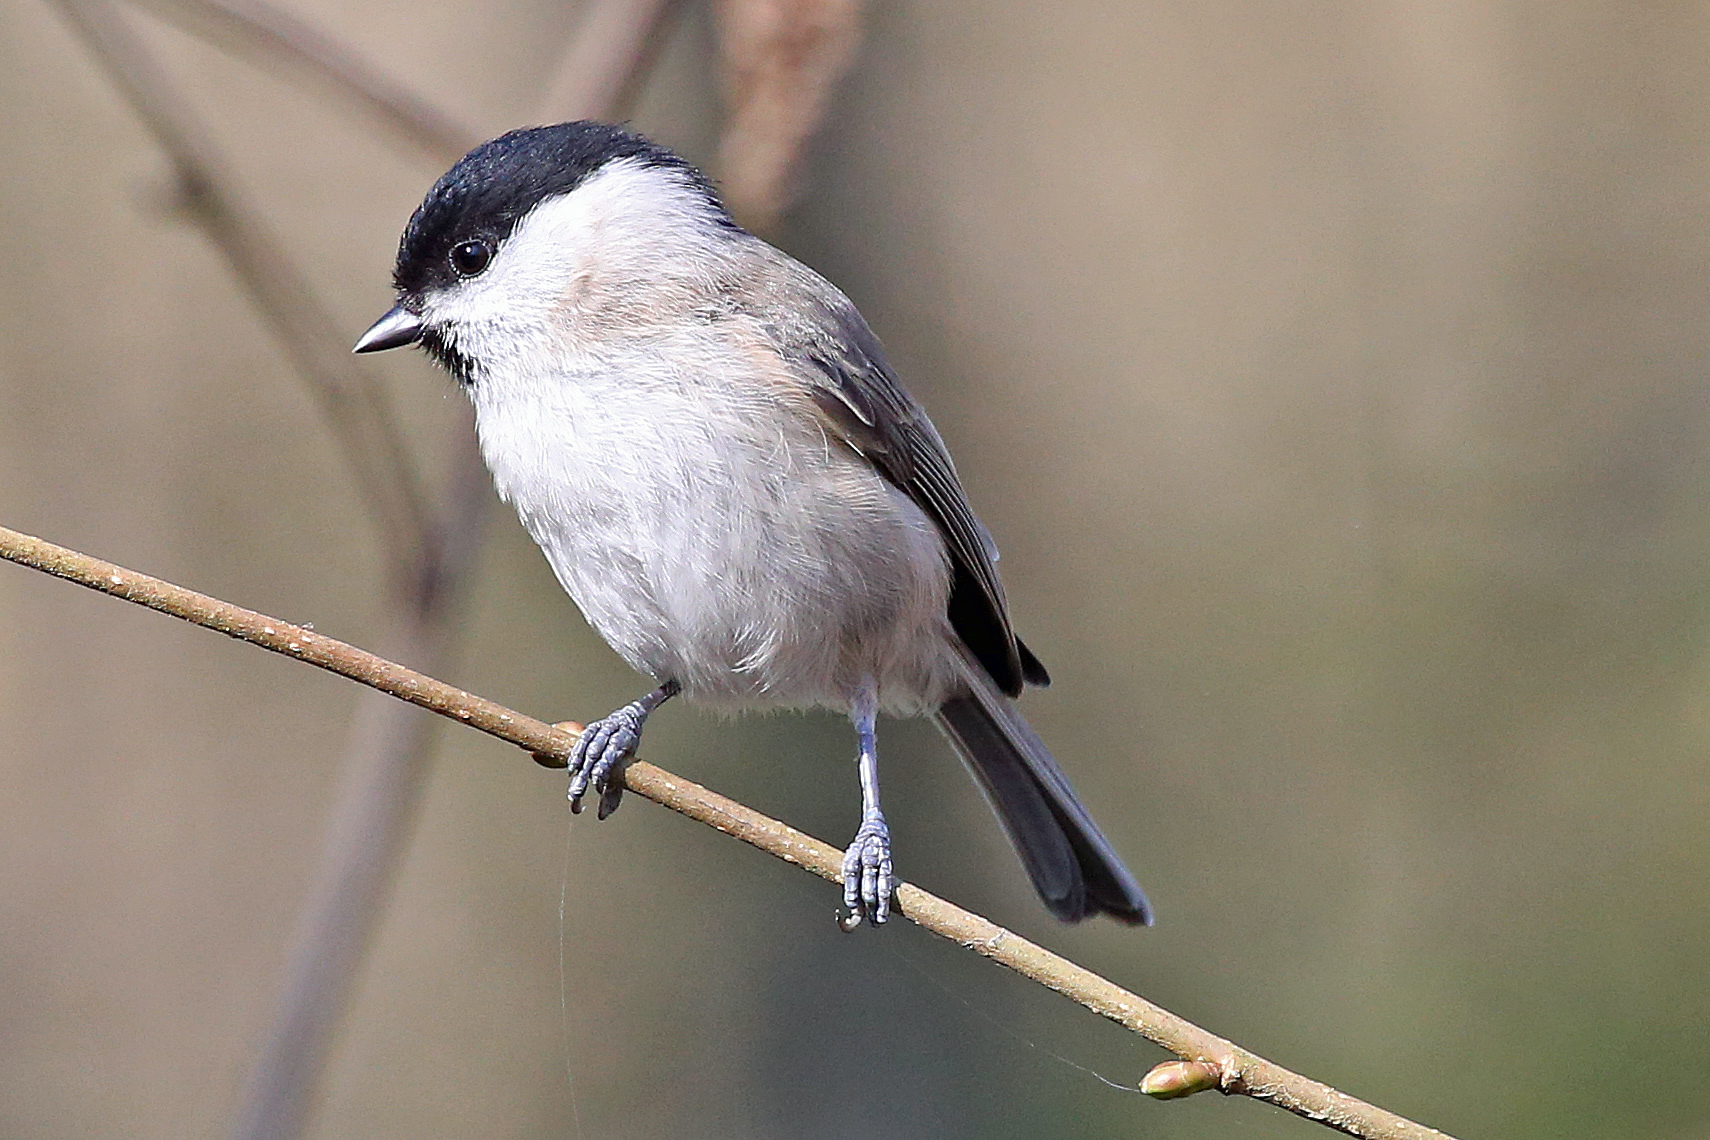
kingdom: Animalia
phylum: Chordata
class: Aves
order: Passeriformes
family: Paridae
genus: Poecile
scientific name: Poecile palustris
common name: Marsh tit
